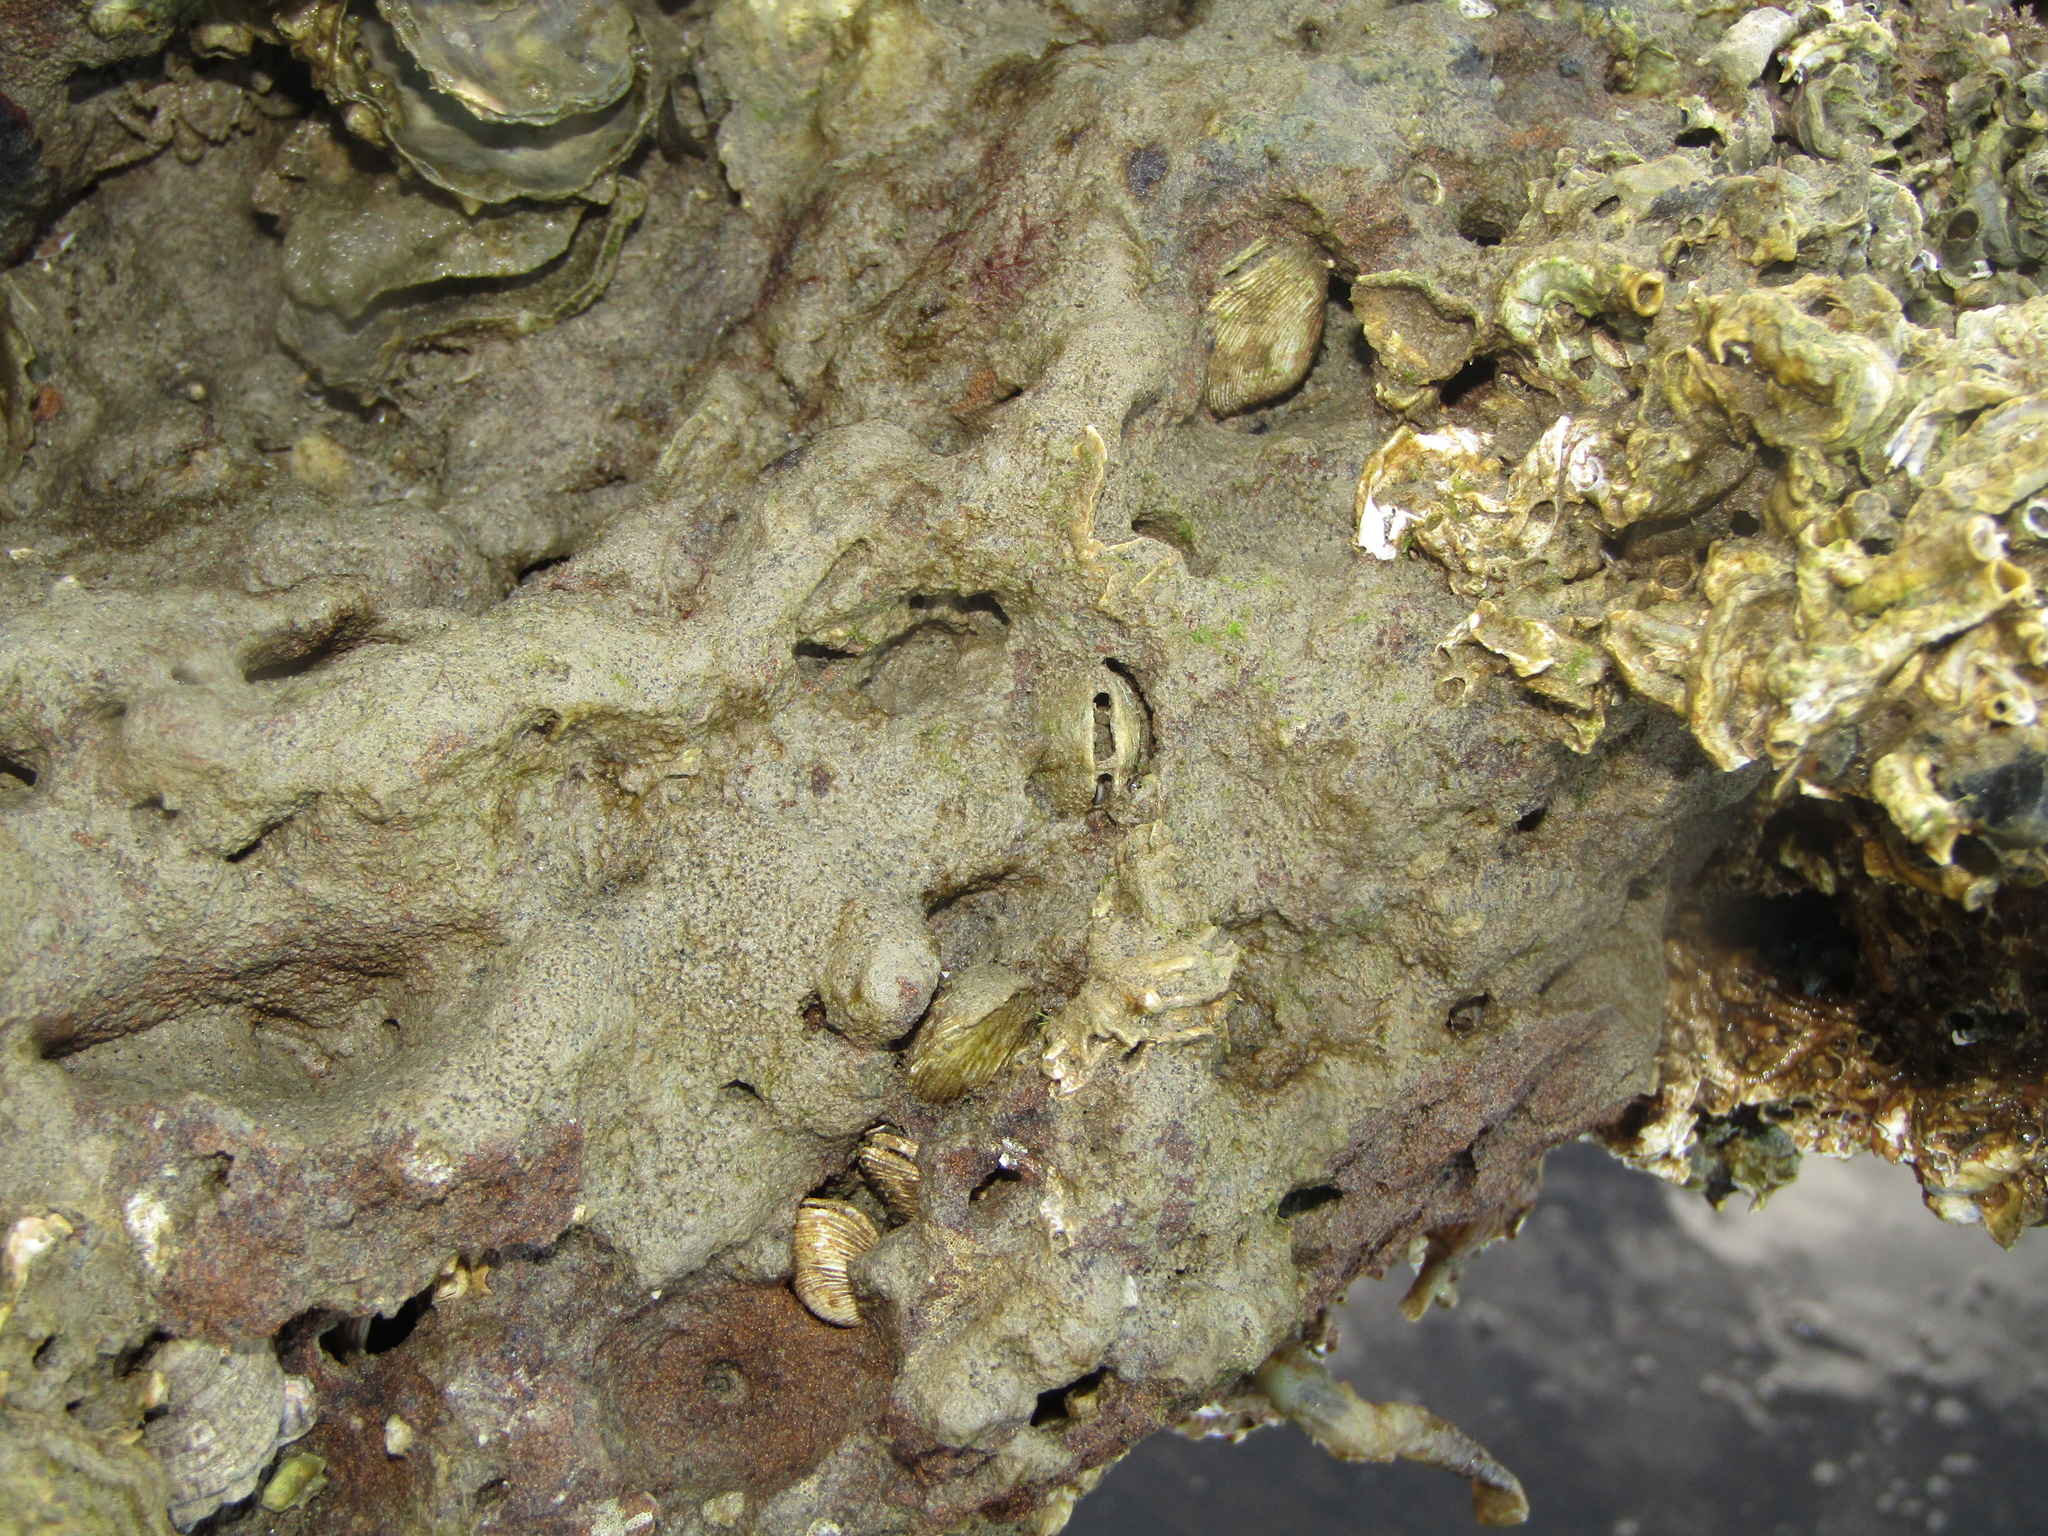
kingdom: Animalia
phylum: Mollusca
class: Bivalvia
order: Venerida
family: Veneridae
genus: Irus
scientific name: Irus reflexus
